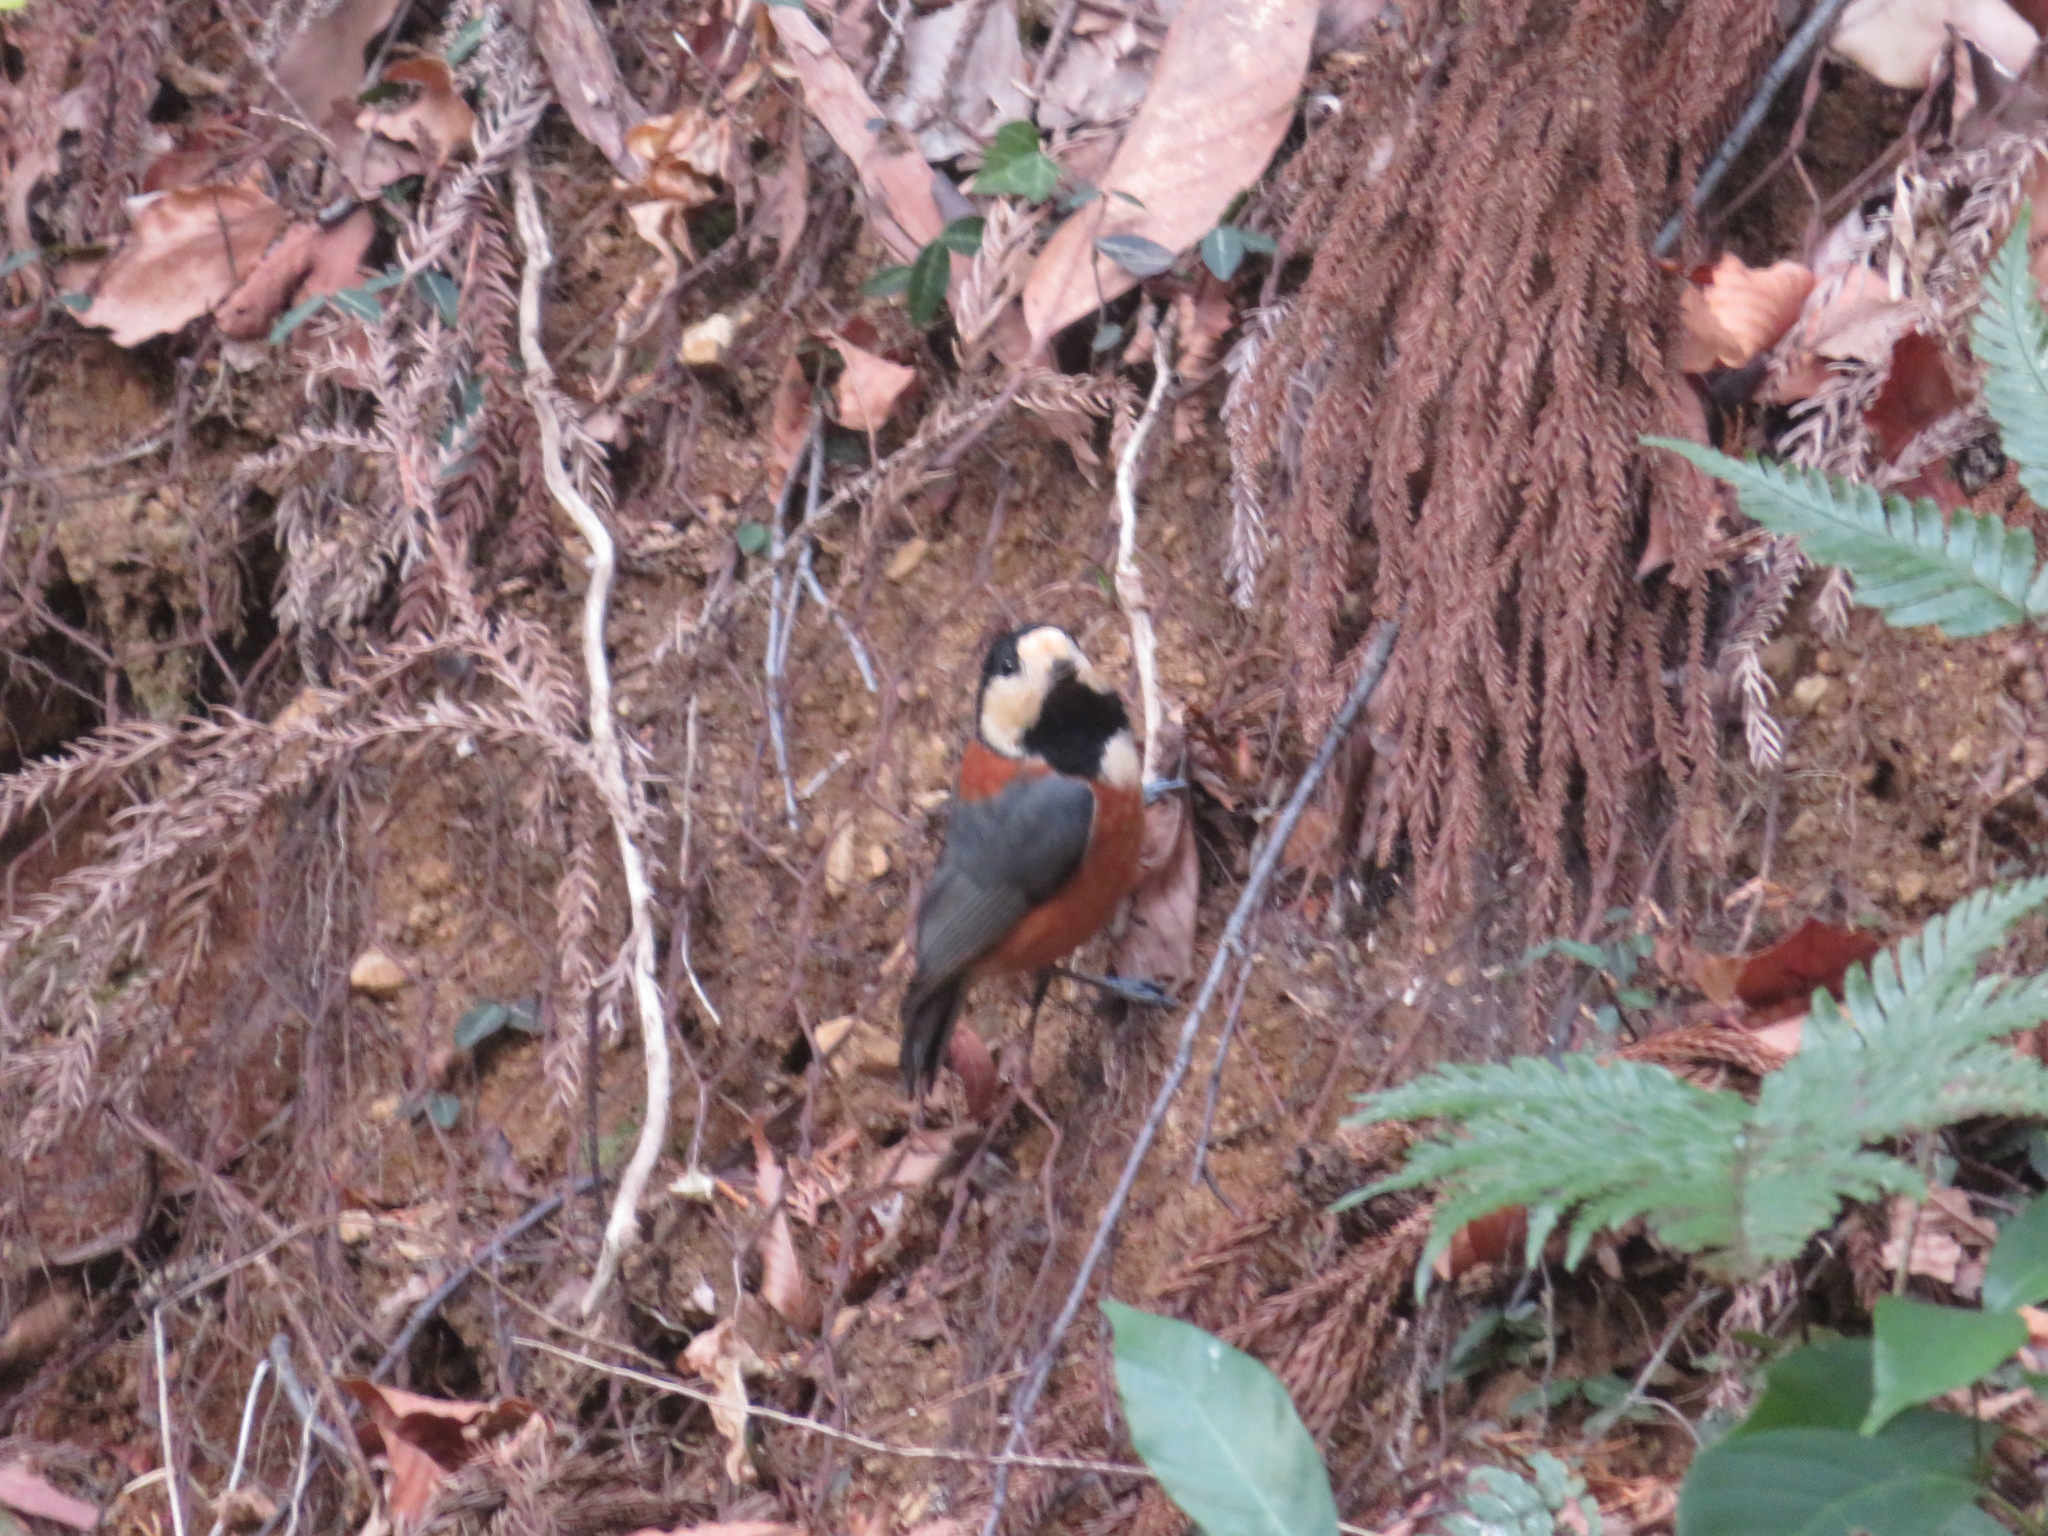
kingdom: Animalia
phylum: Chordata
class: Aves
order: Passeriformes
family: Paridae
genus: Poecile
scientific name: Poecile varius
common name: Varied tit
